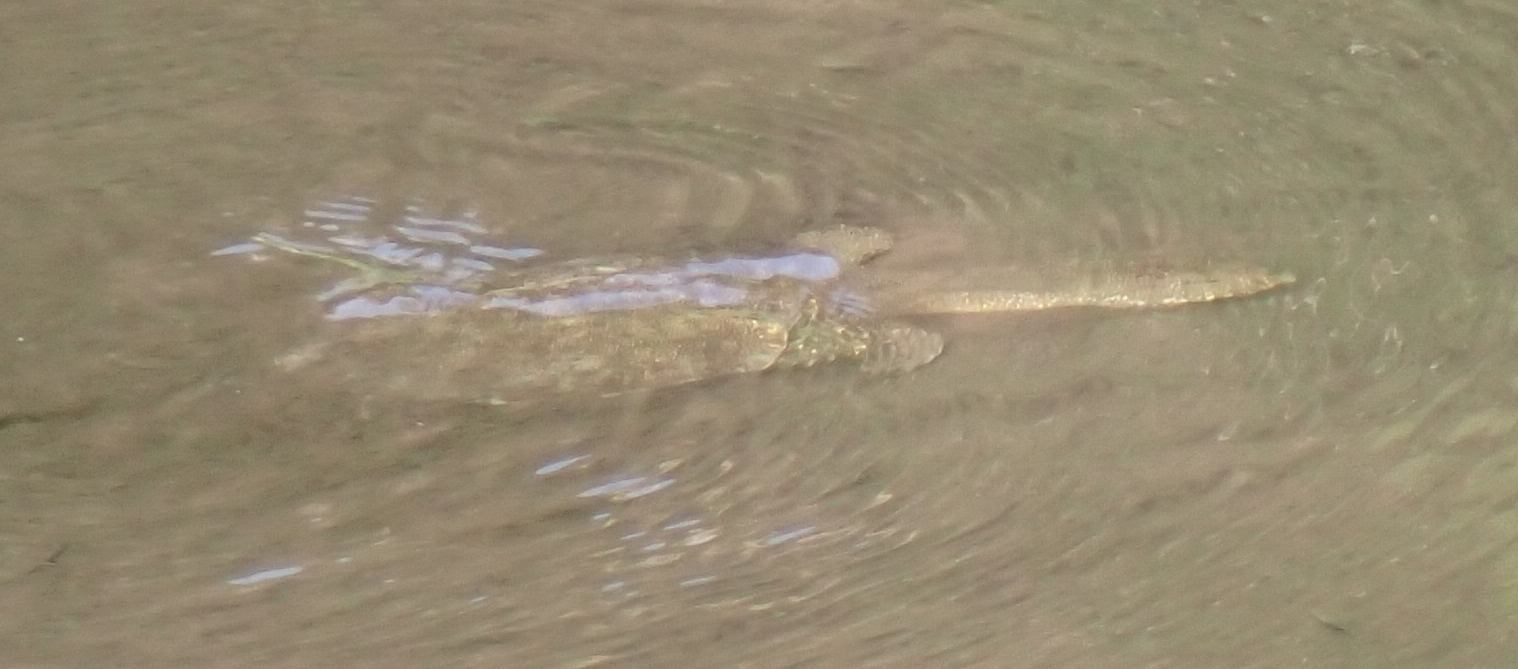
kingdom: Animalia
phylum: Chordata
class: Testudines
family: Trionychidae
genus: Pelodiscus
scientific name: Pelodiscus sinensis
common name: Chinese softshell turtle
